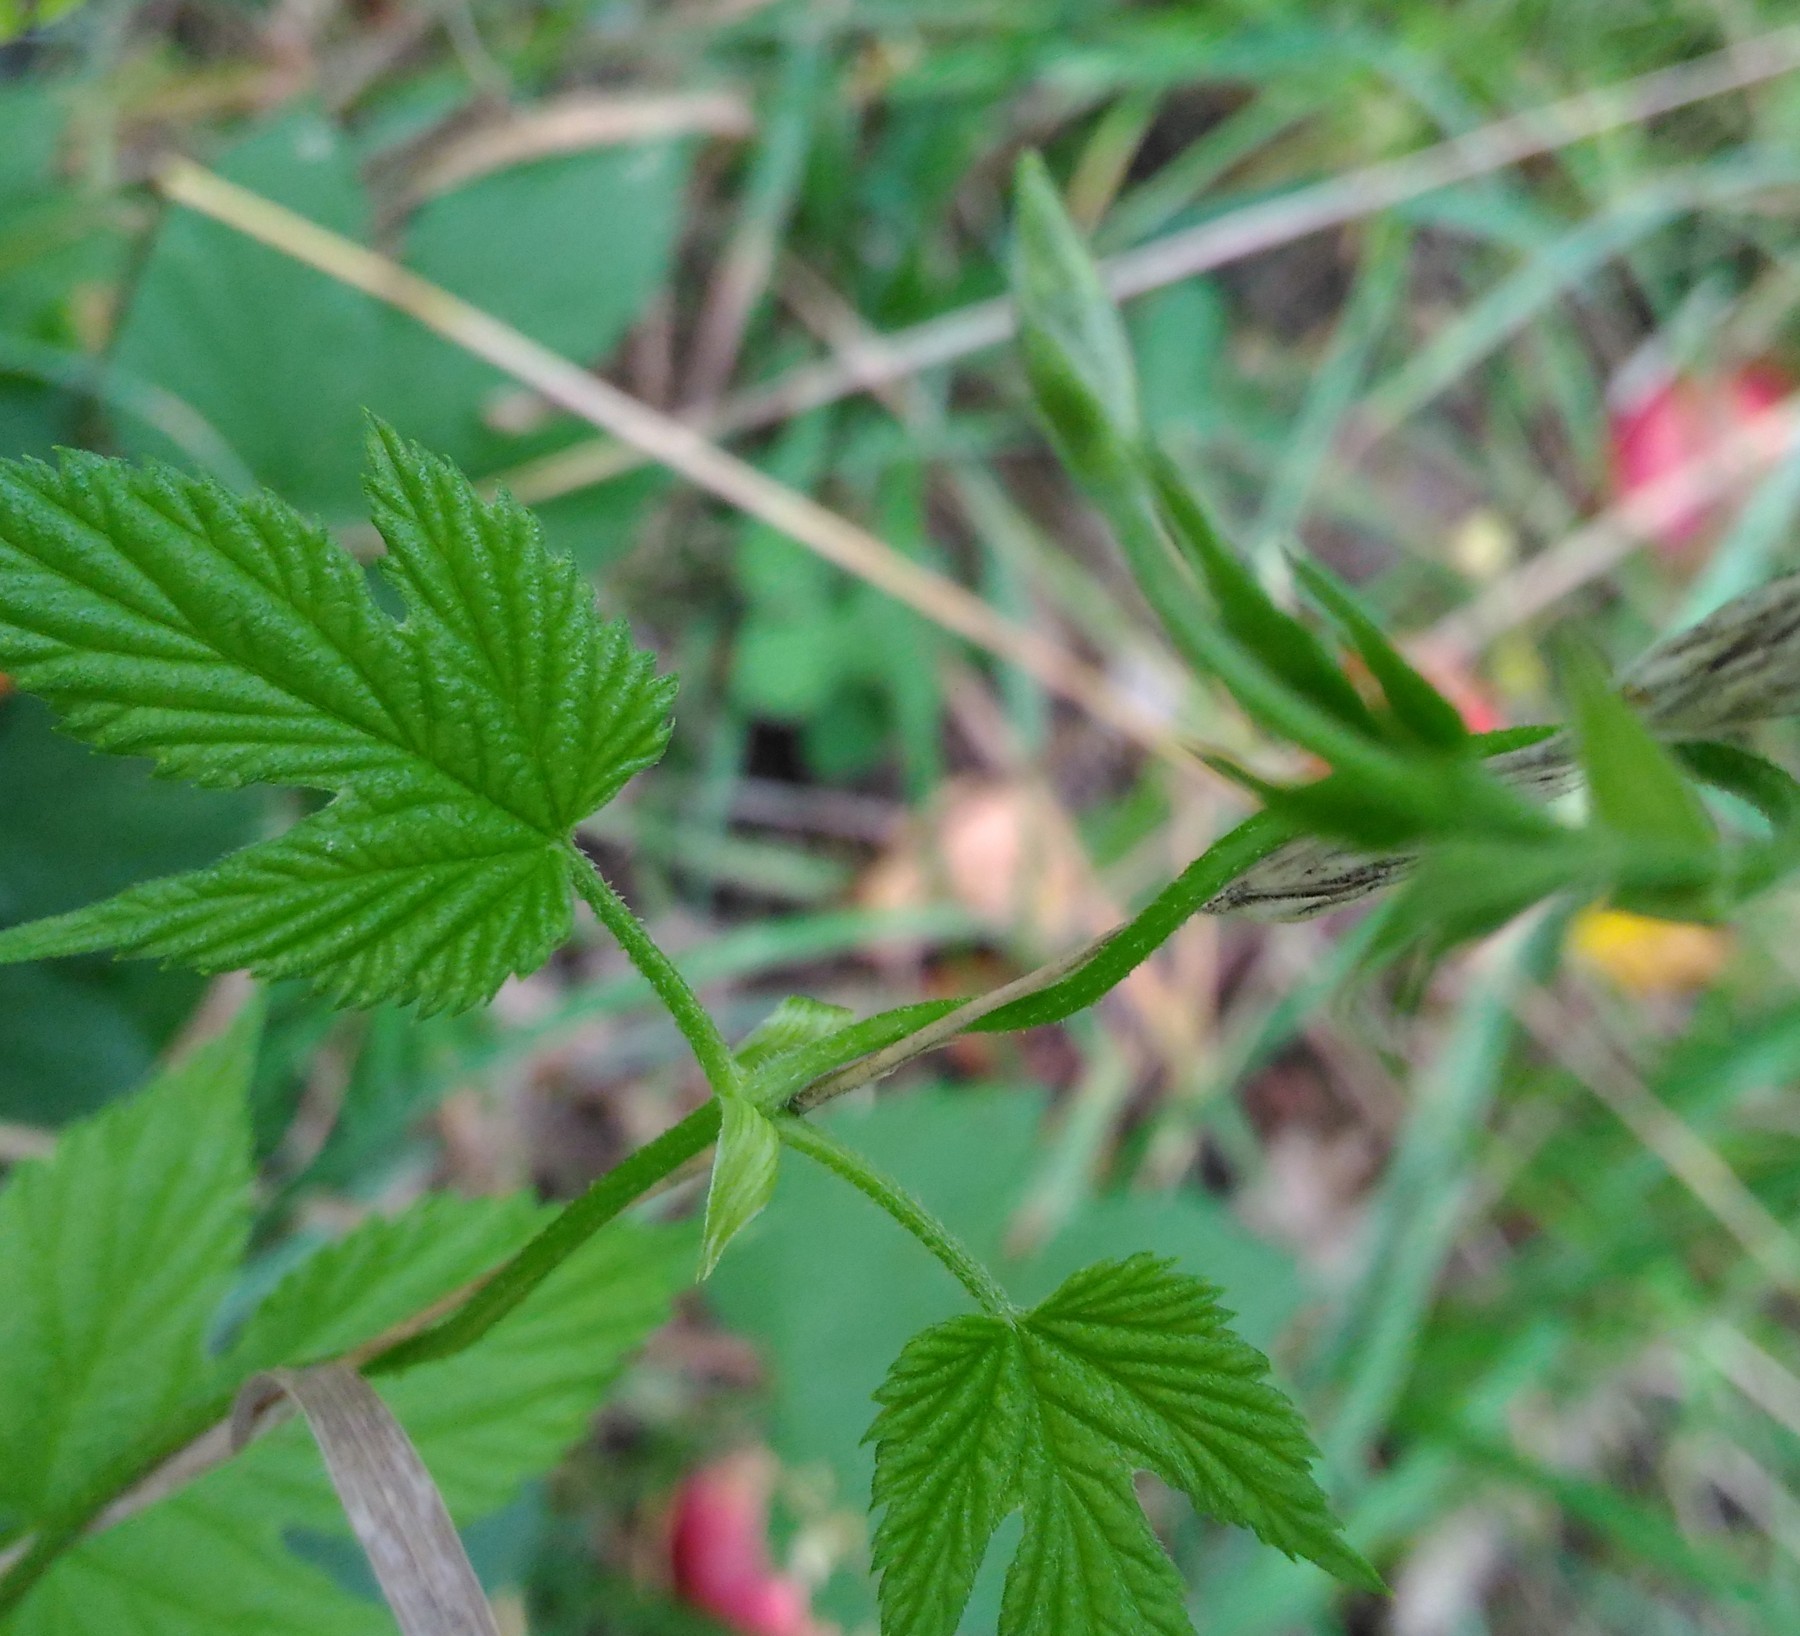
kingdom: Plantae
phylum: Tracheophyta
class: Magnoliopsida
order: Rosales
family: Cannabaceae
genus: Humulus
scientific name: Humulus lupulus
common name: Hop
